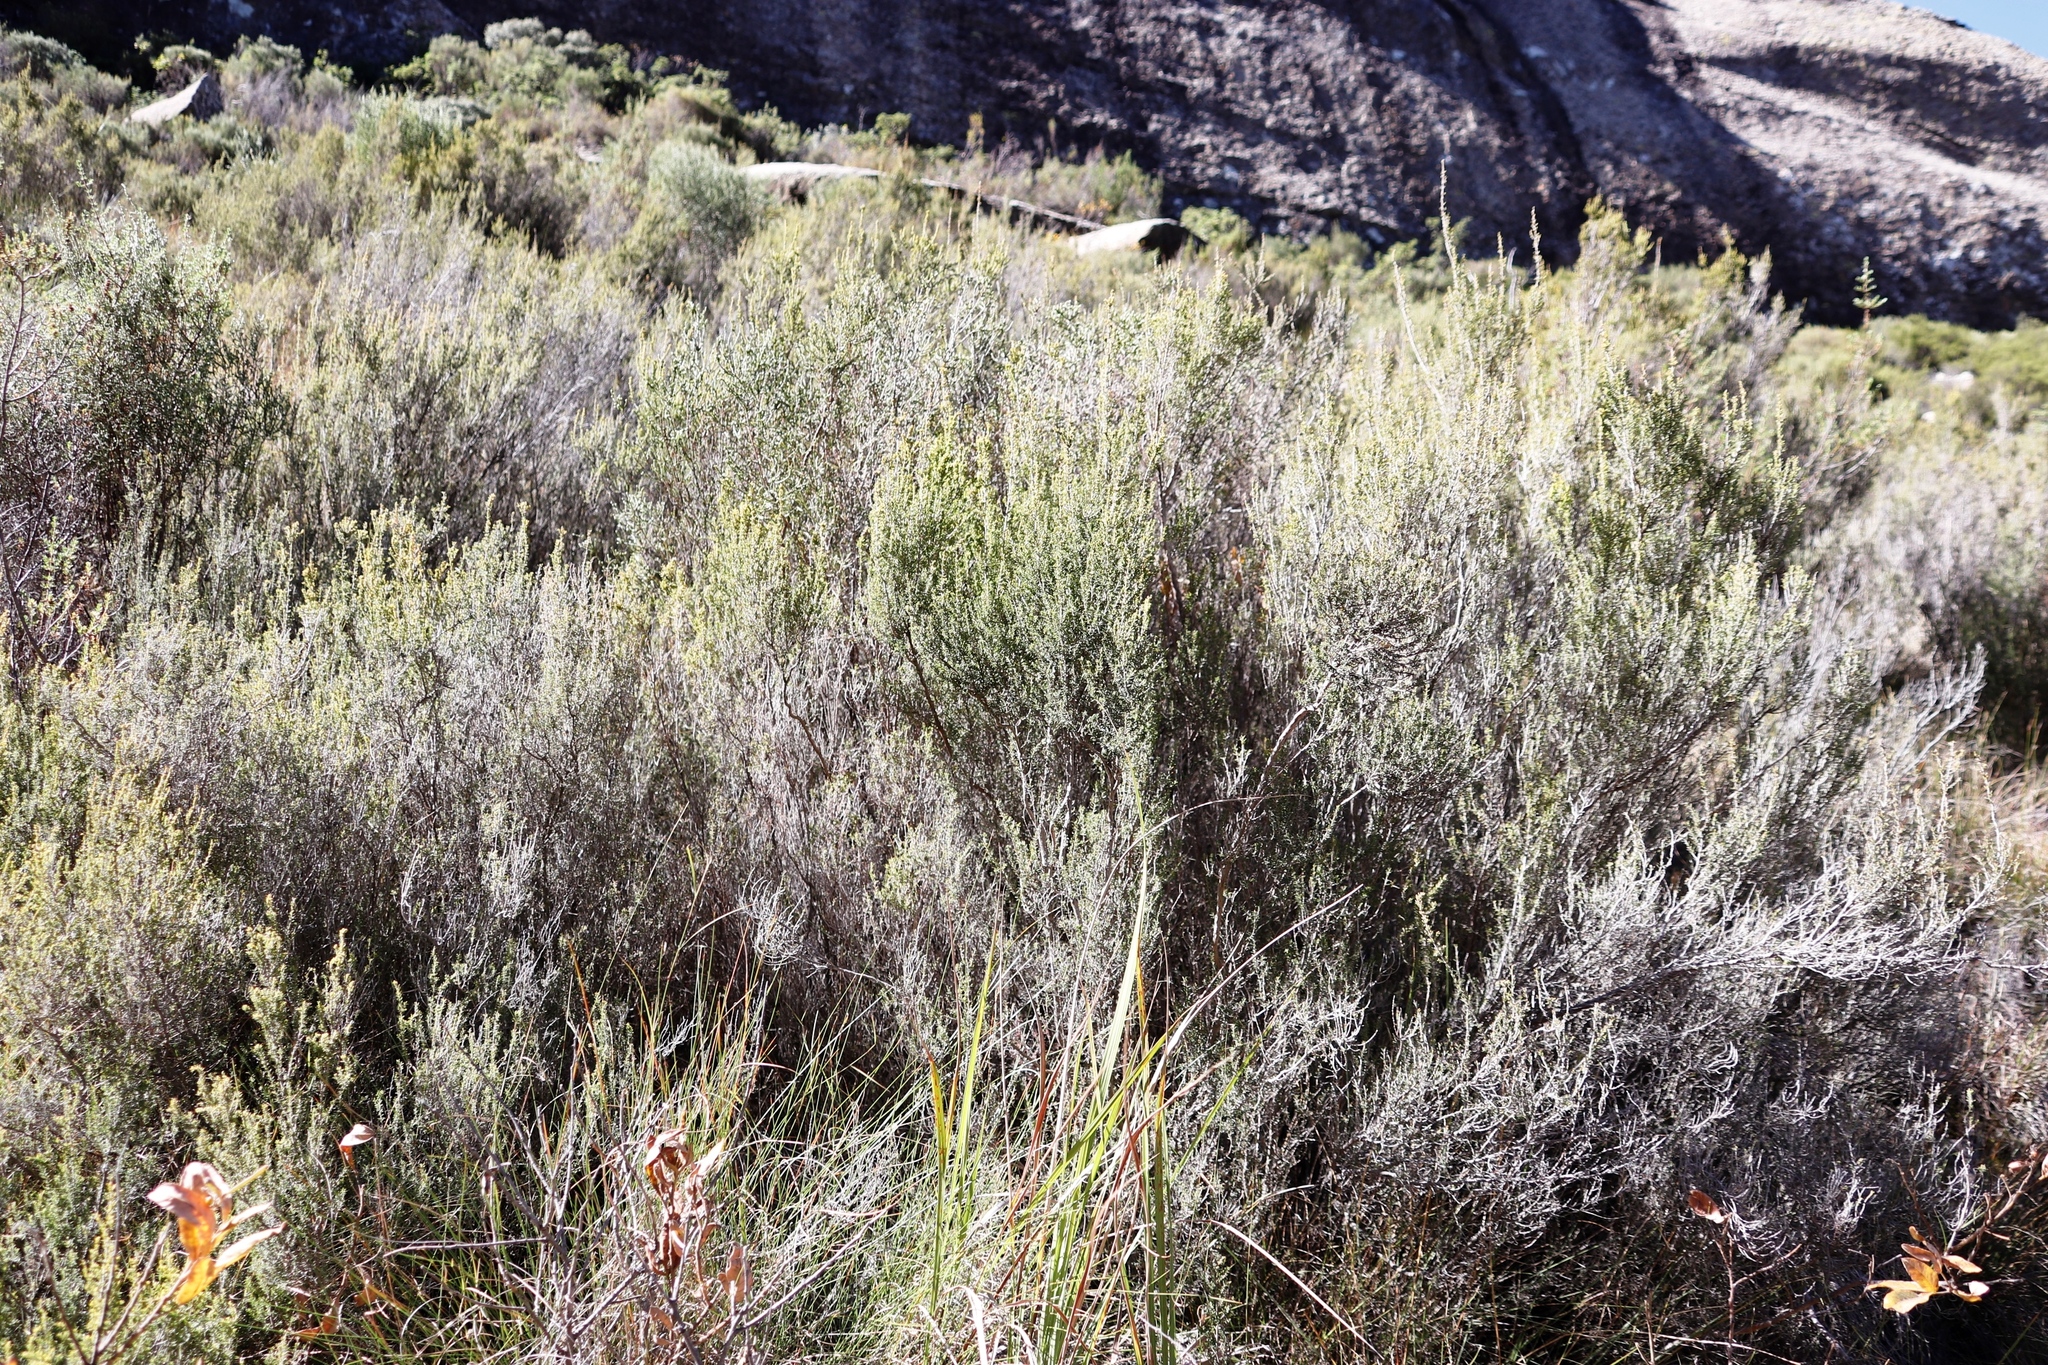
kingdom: Plantae
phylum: Tracheophyta
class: Magnoliopsida
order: Ericales
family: Ericaceae
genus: Erica
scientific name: Erica maesta
